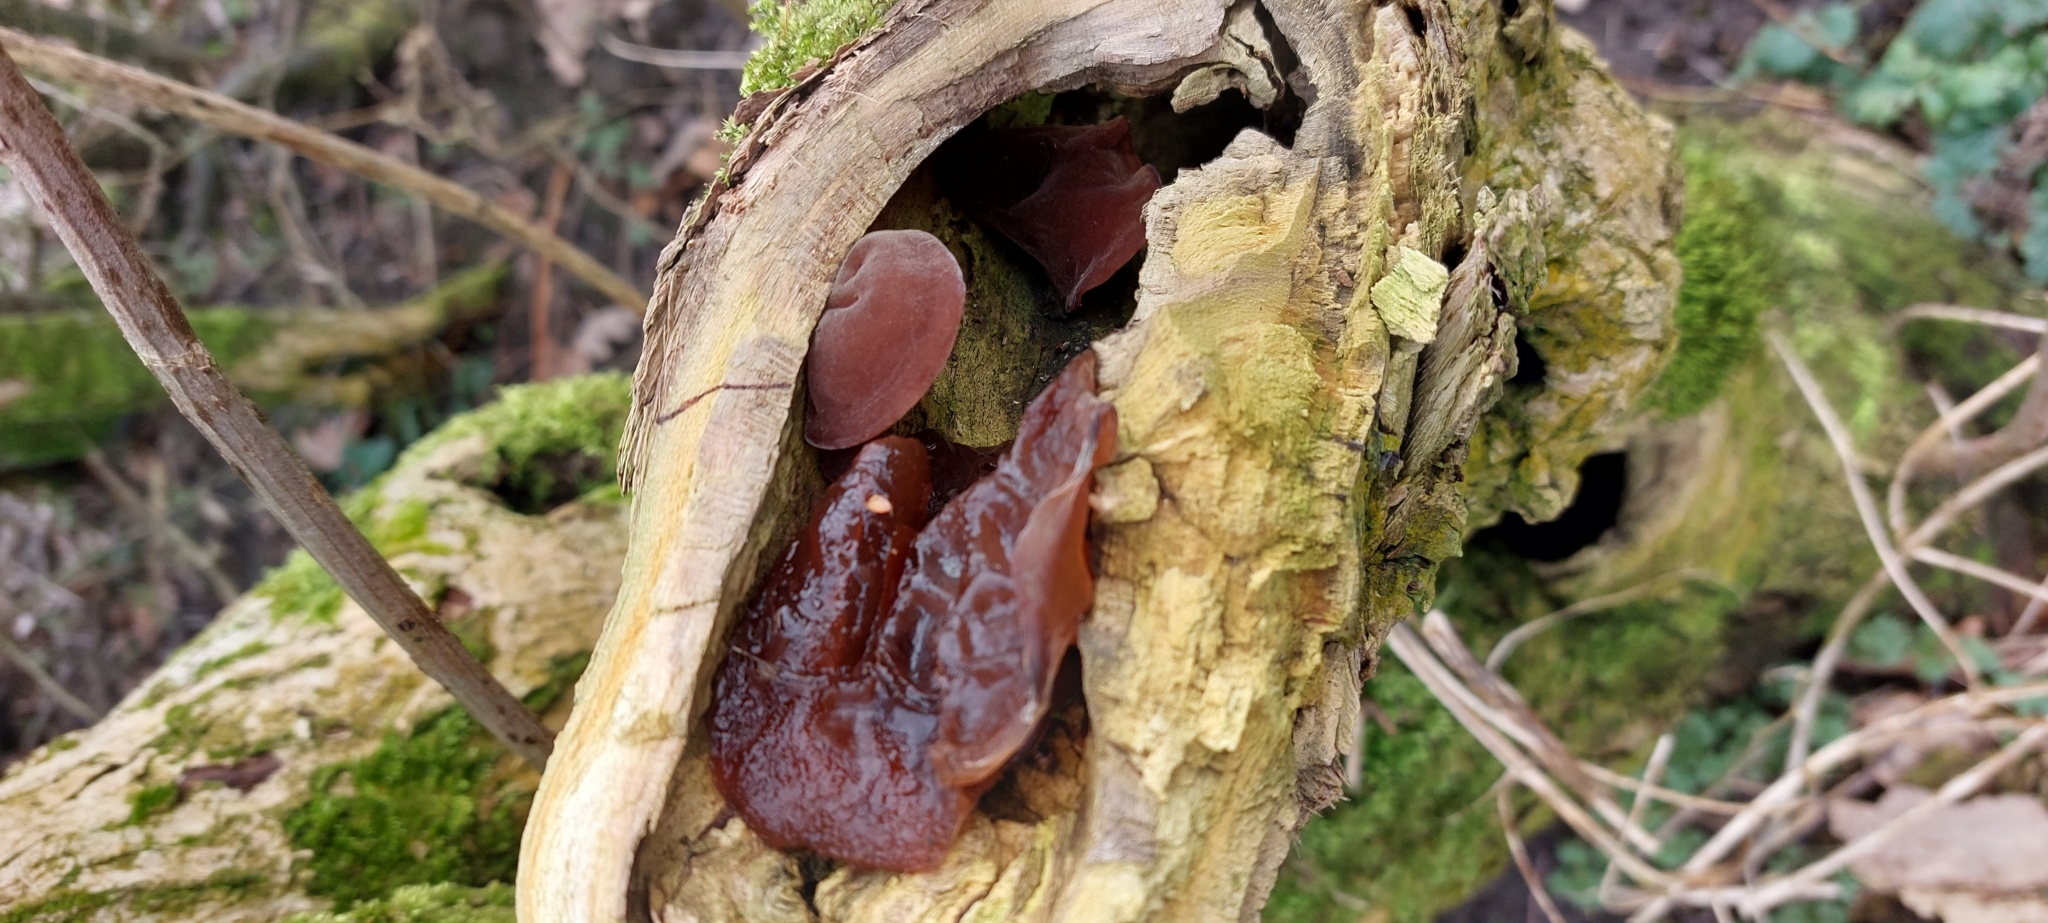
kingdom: Fungi
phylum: Basidiomycota
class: Agaricomycetes
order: Auriculariales
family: Auriculariaceae
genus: Auricularia
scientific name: Auricularia auricula-judae
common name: Jelly ear
